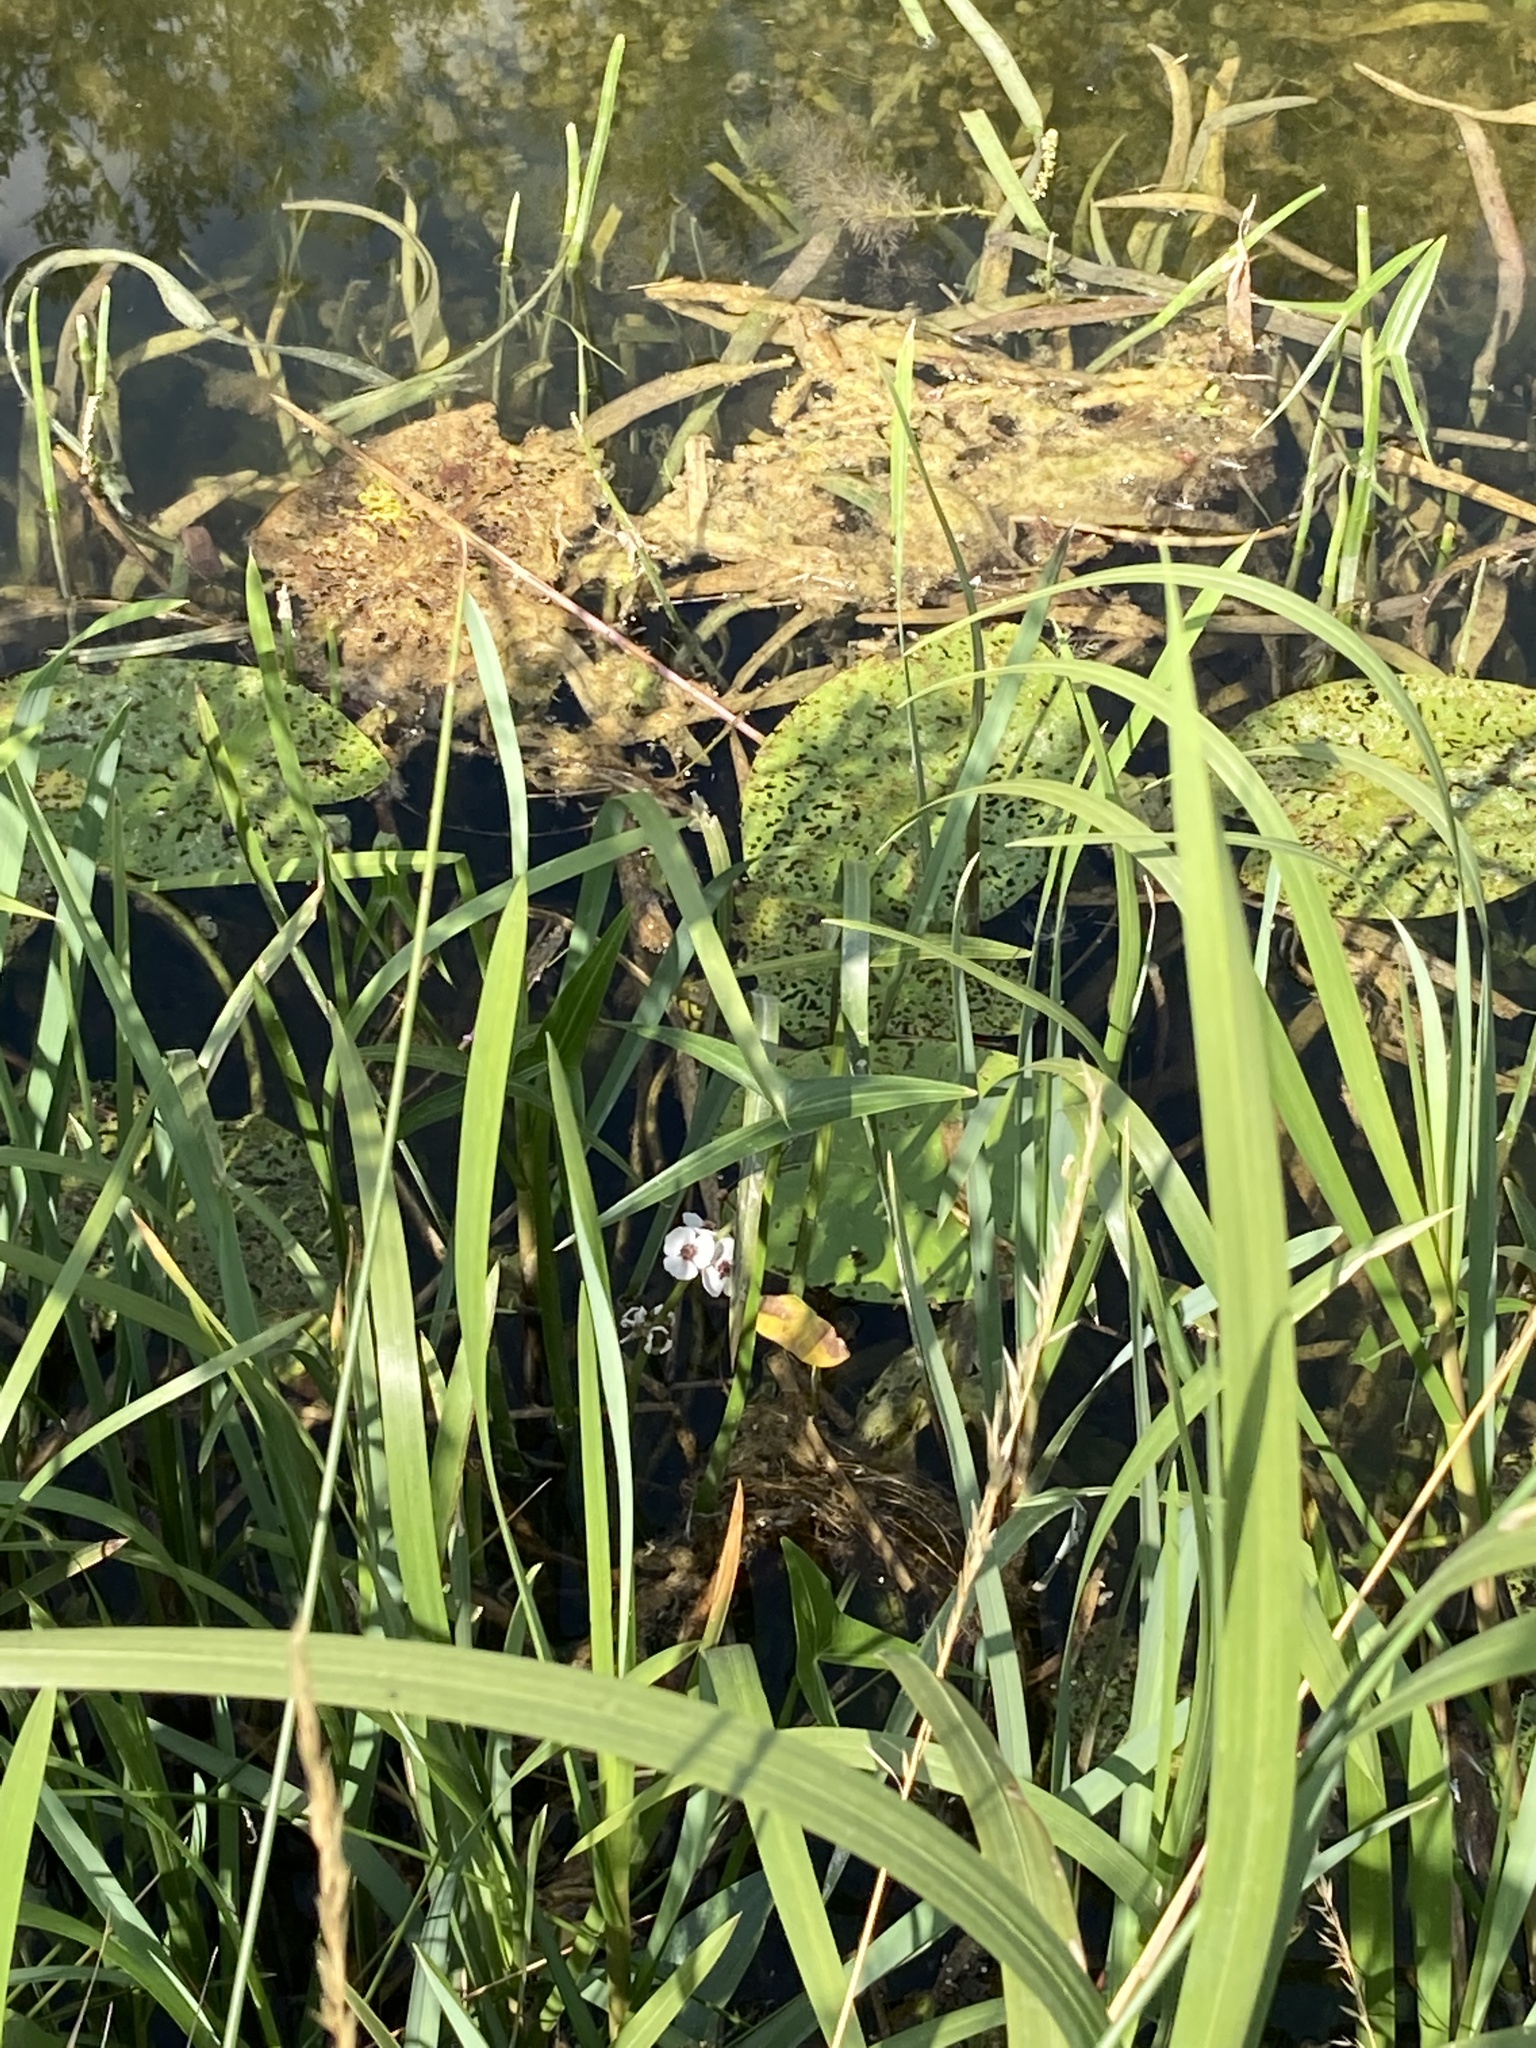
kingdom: Plantae
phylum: Tracheophyta
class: Liliopsida
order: Alismatales
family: Alismataceae
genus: Sagittaria
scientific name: Sagittaria sagittifolia
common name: Arrowhead
